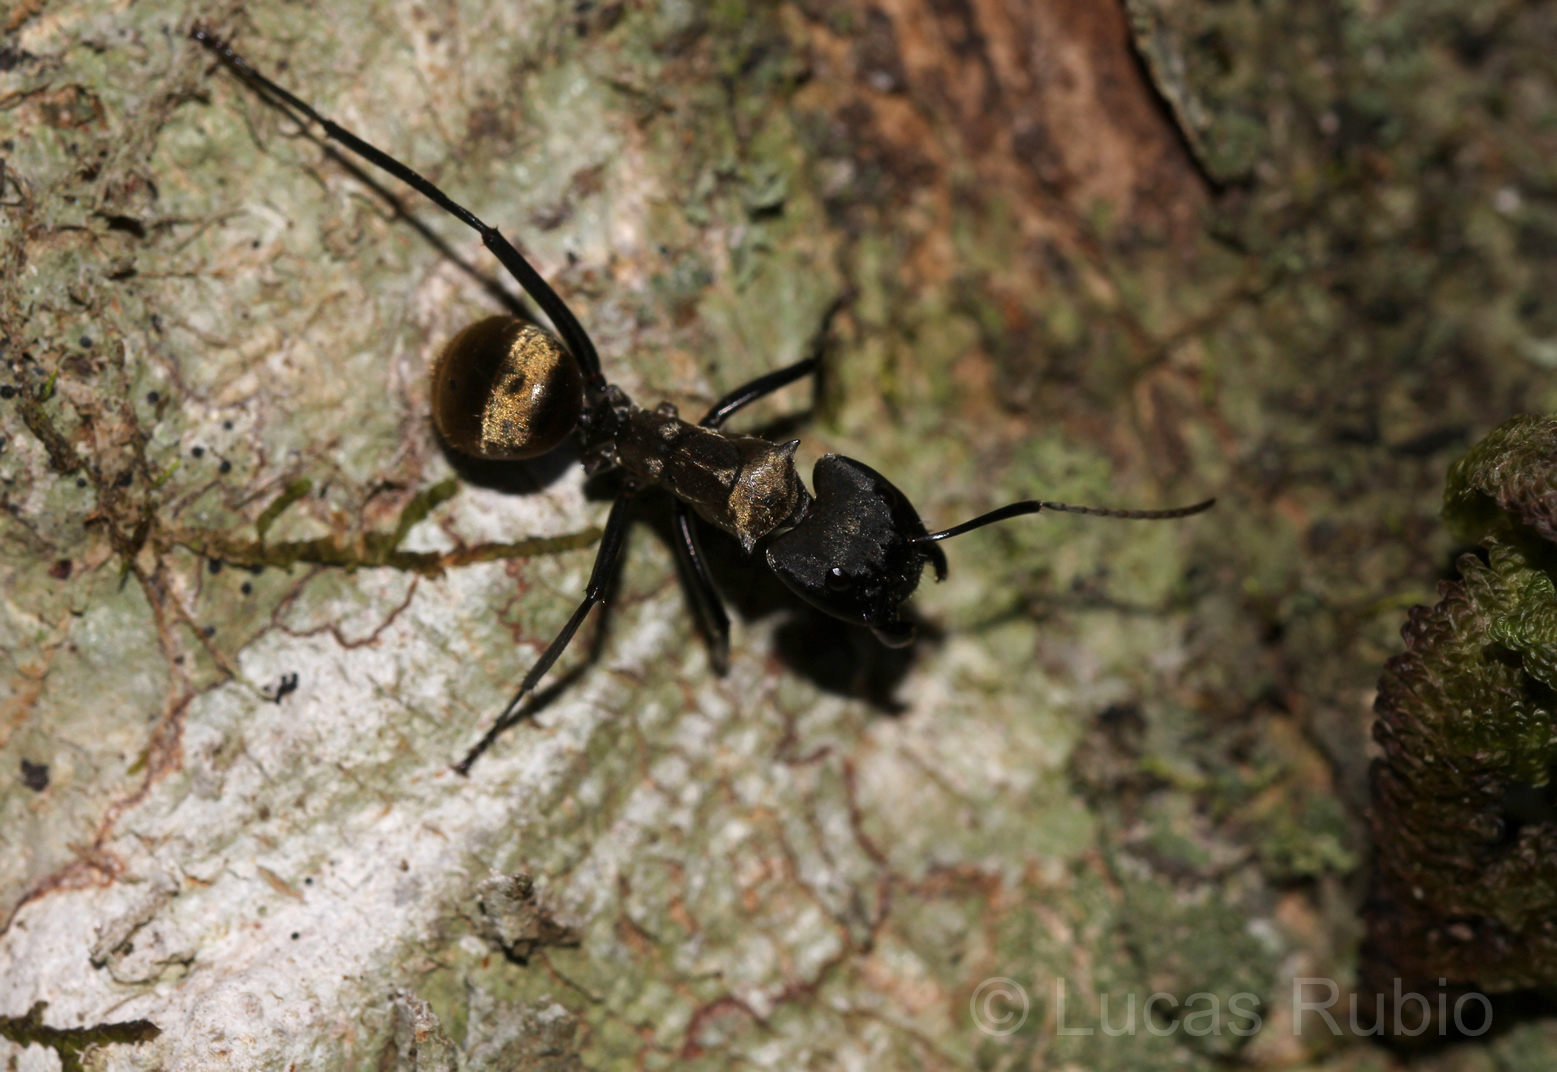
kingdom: Animalia
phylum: Arthropoda
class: Insecta
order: Hymenoptera
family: Formicidae
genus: Camponotus
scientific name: Camponotus sericeiventris
